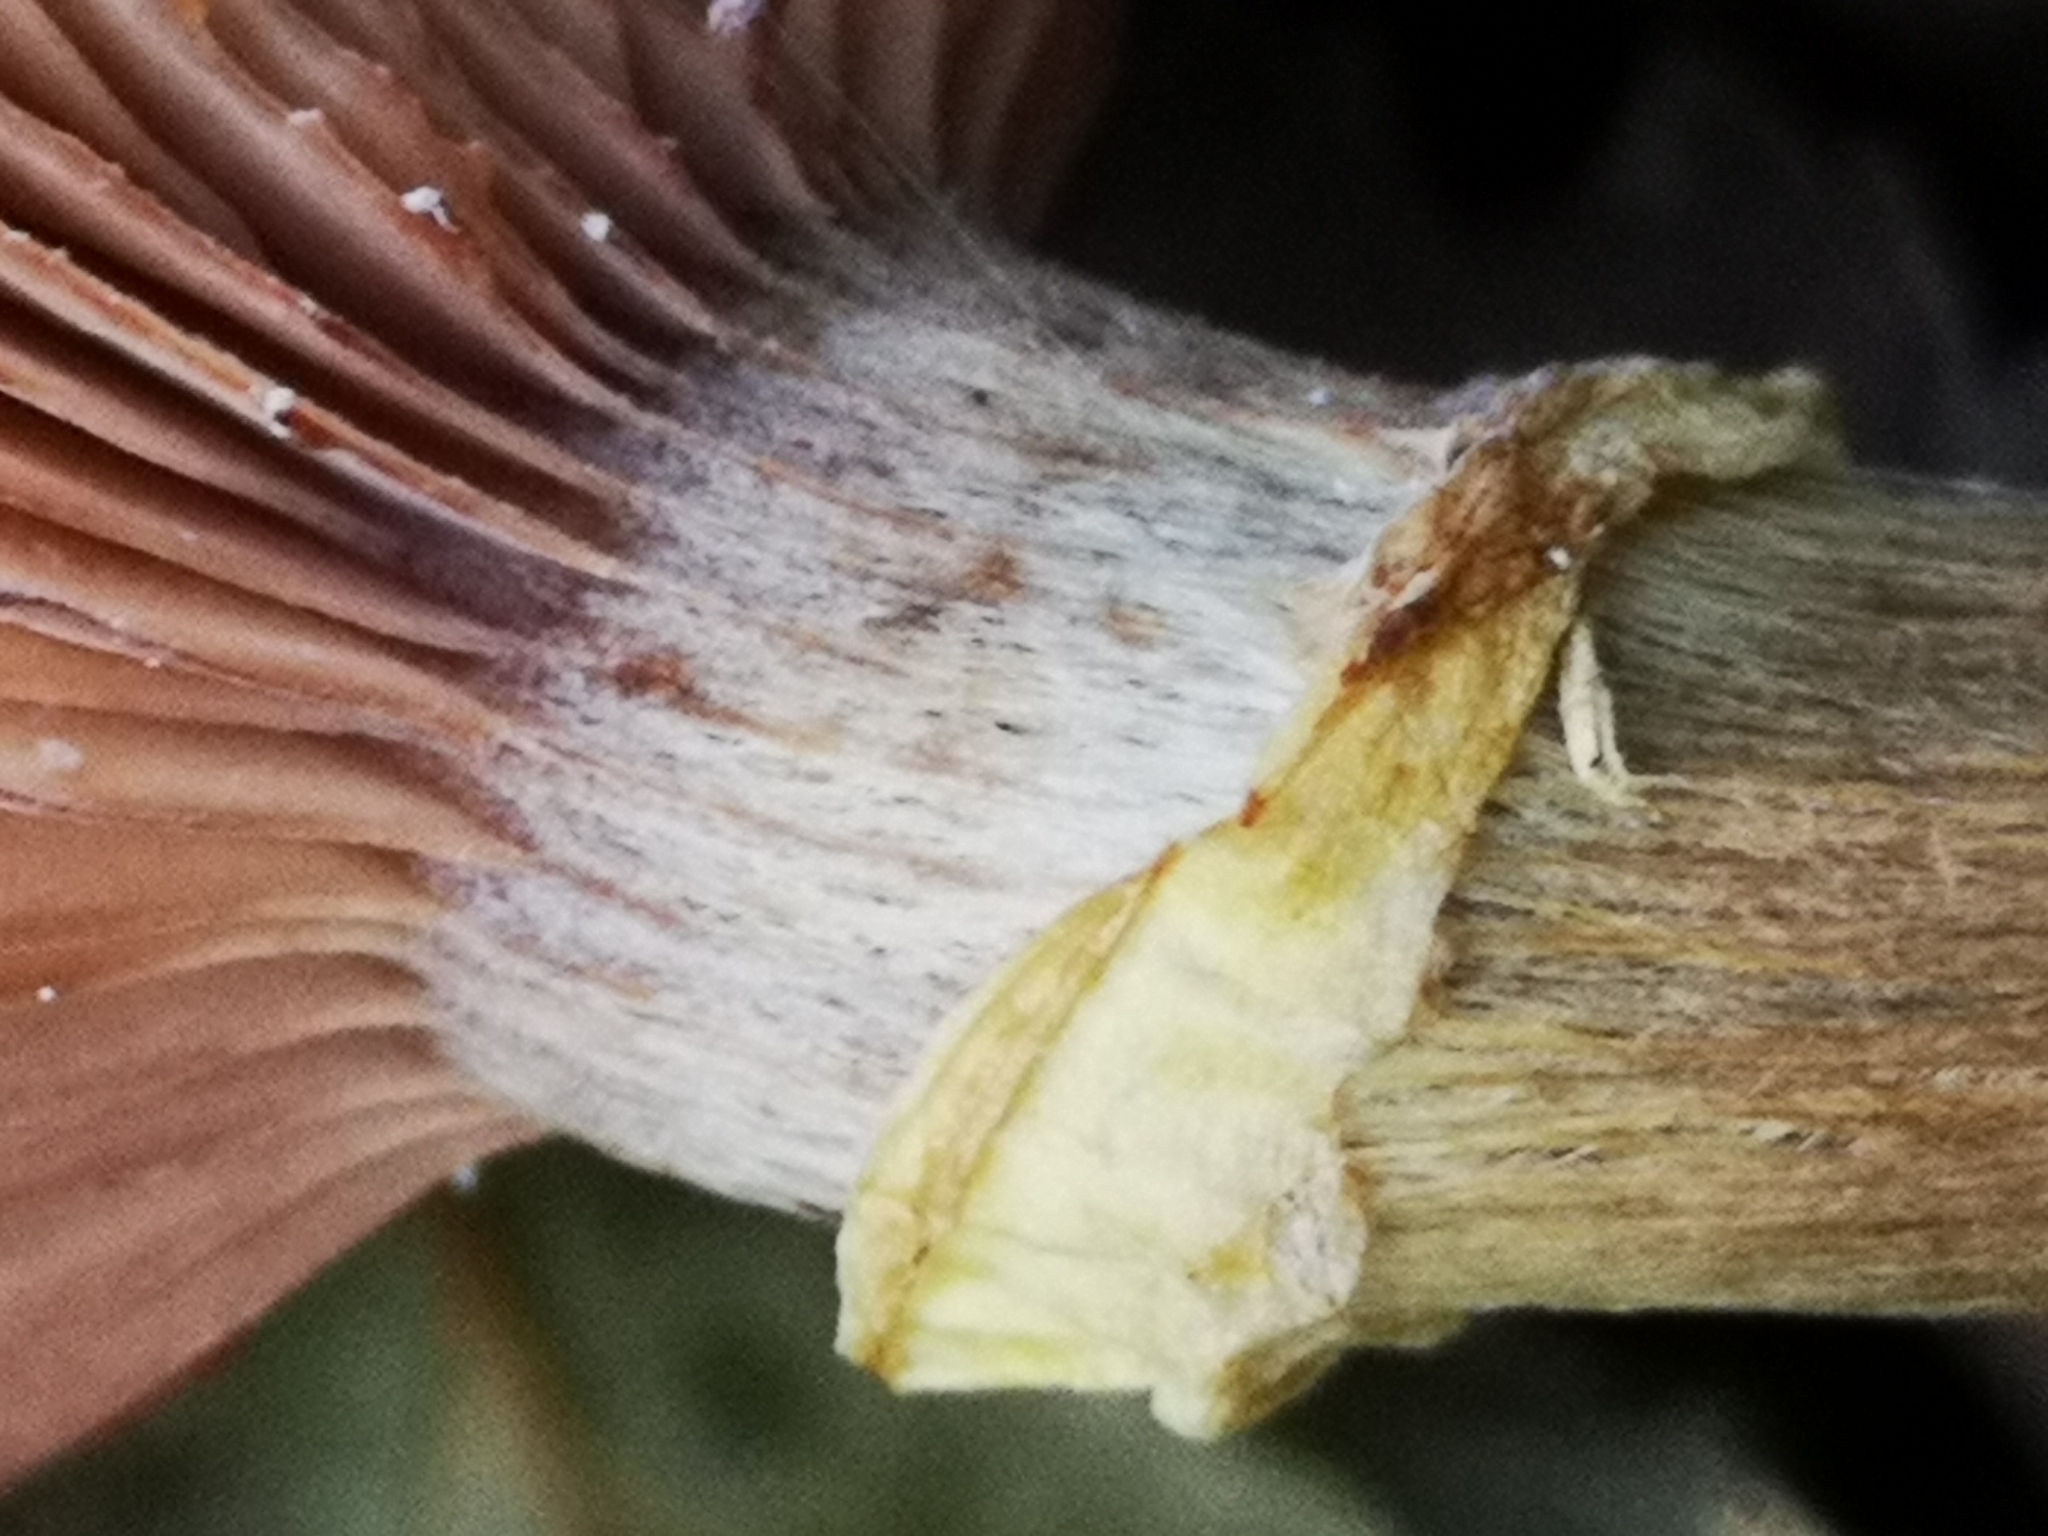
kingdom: Fungi
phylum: Basidiomycota
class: Agaricomycetes
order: Agaricales
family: Physalacriaceae
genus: Armillaria
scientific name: Armillaria gallica
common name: Bulbous honey fungus
